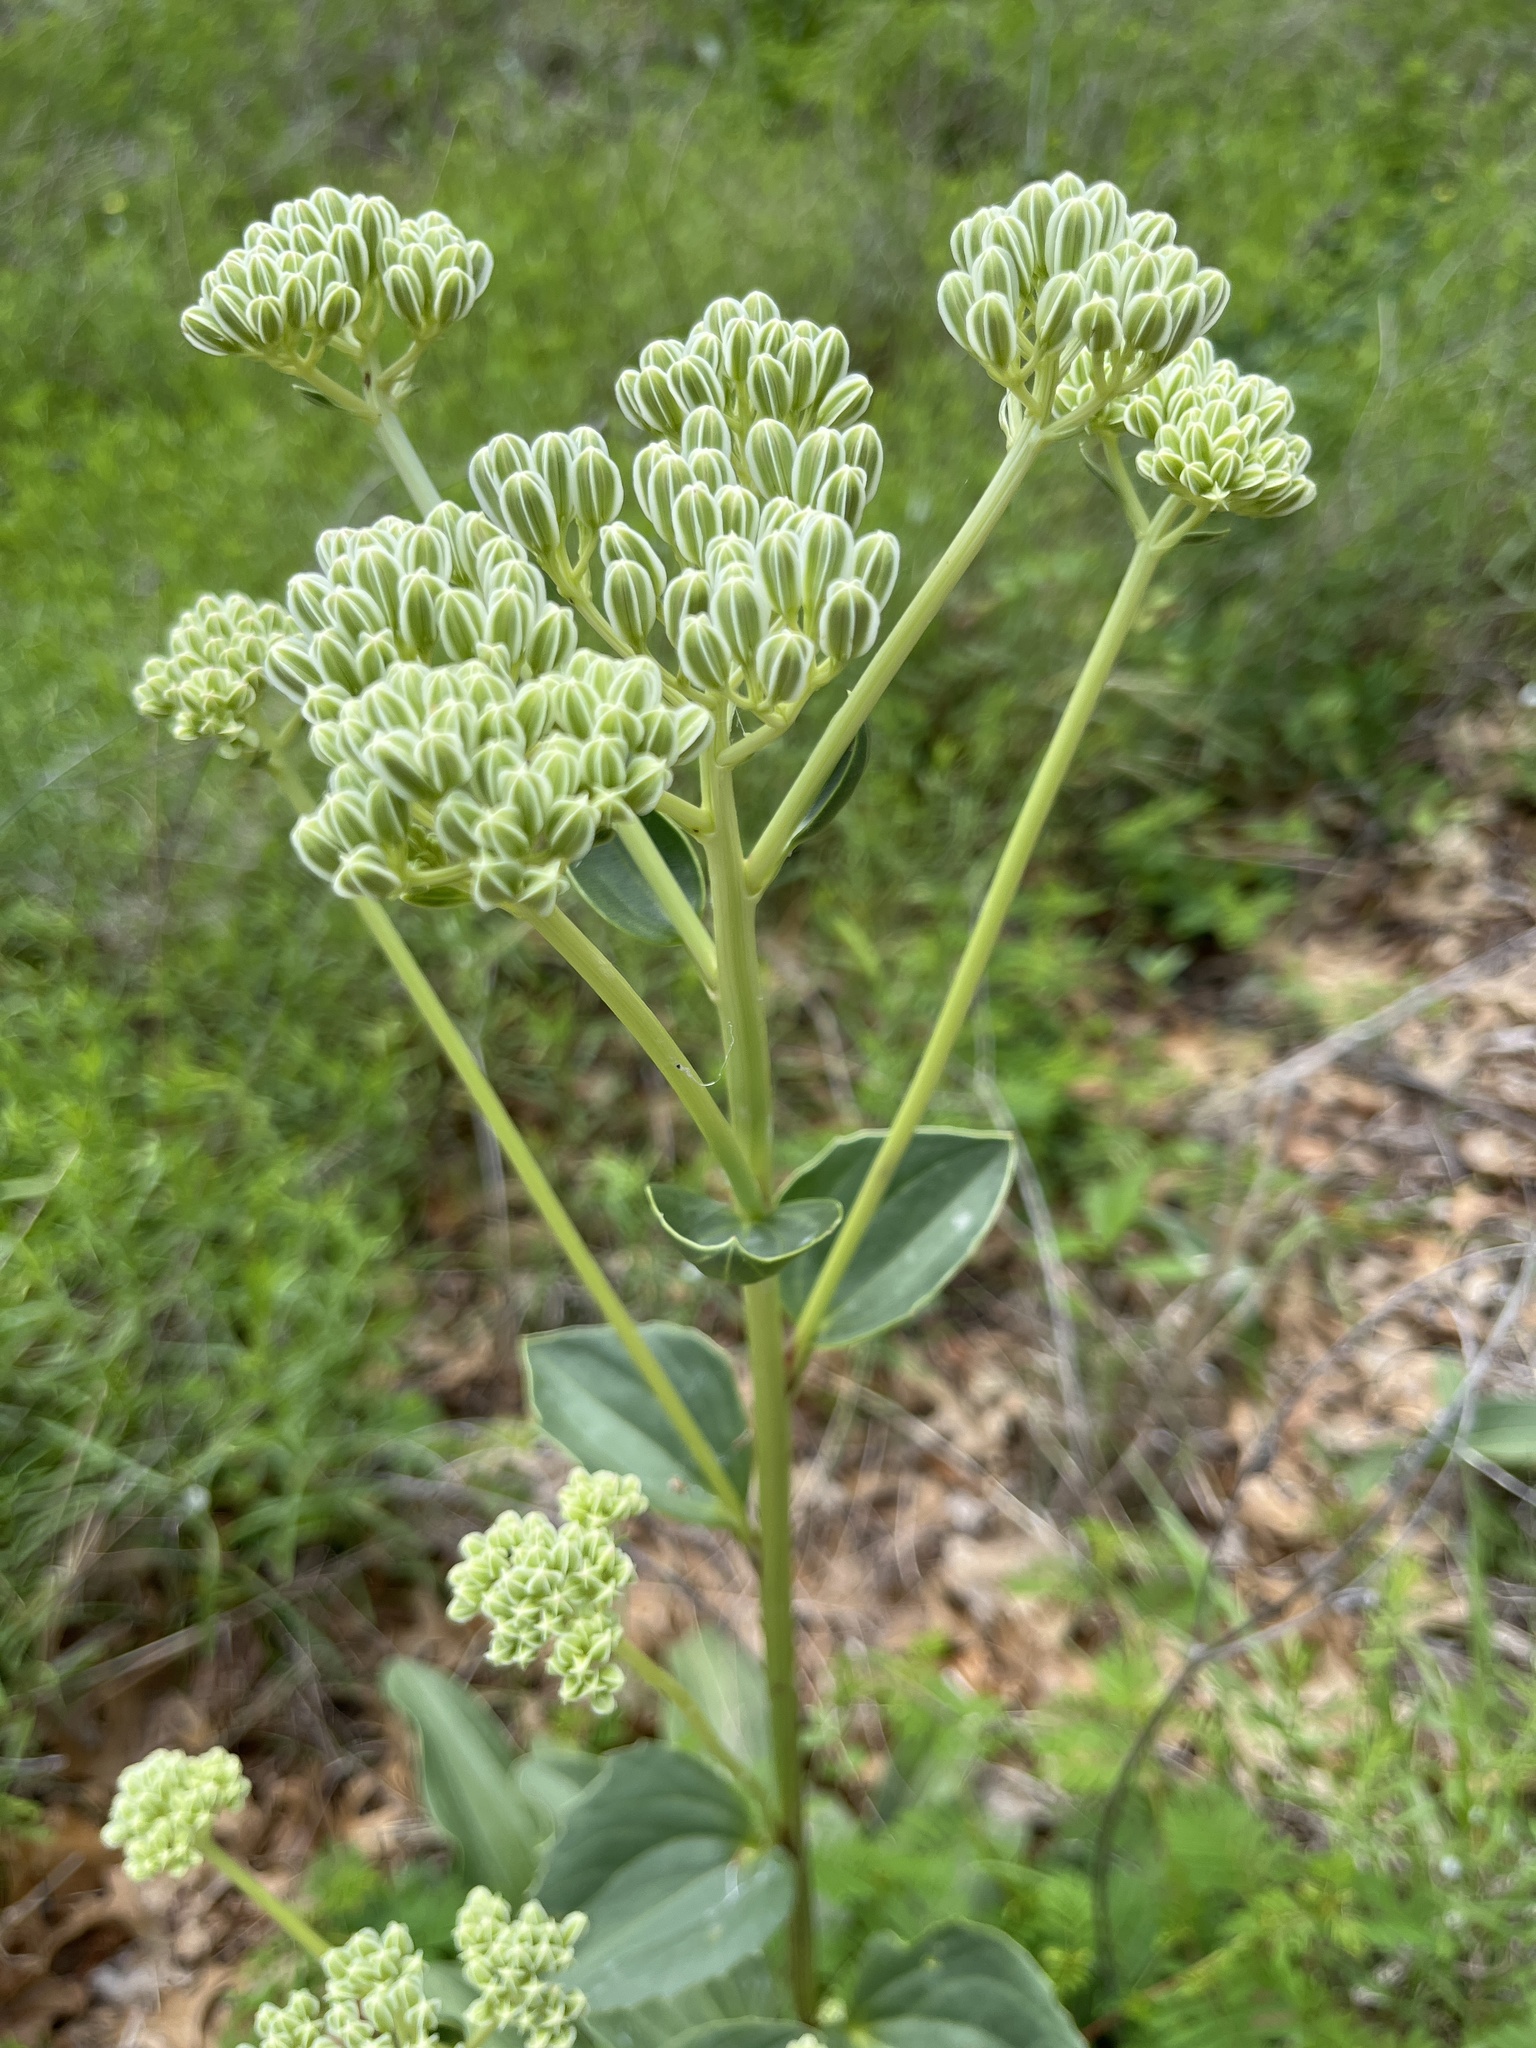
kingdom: Plantae
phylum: Tracheophyta
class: Magnoliopsida
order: Asterales
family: Asteraceae
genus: Arnoglossum
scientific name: Arnoglossum plantagineum
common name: Groove-stemmed indian-plantain
